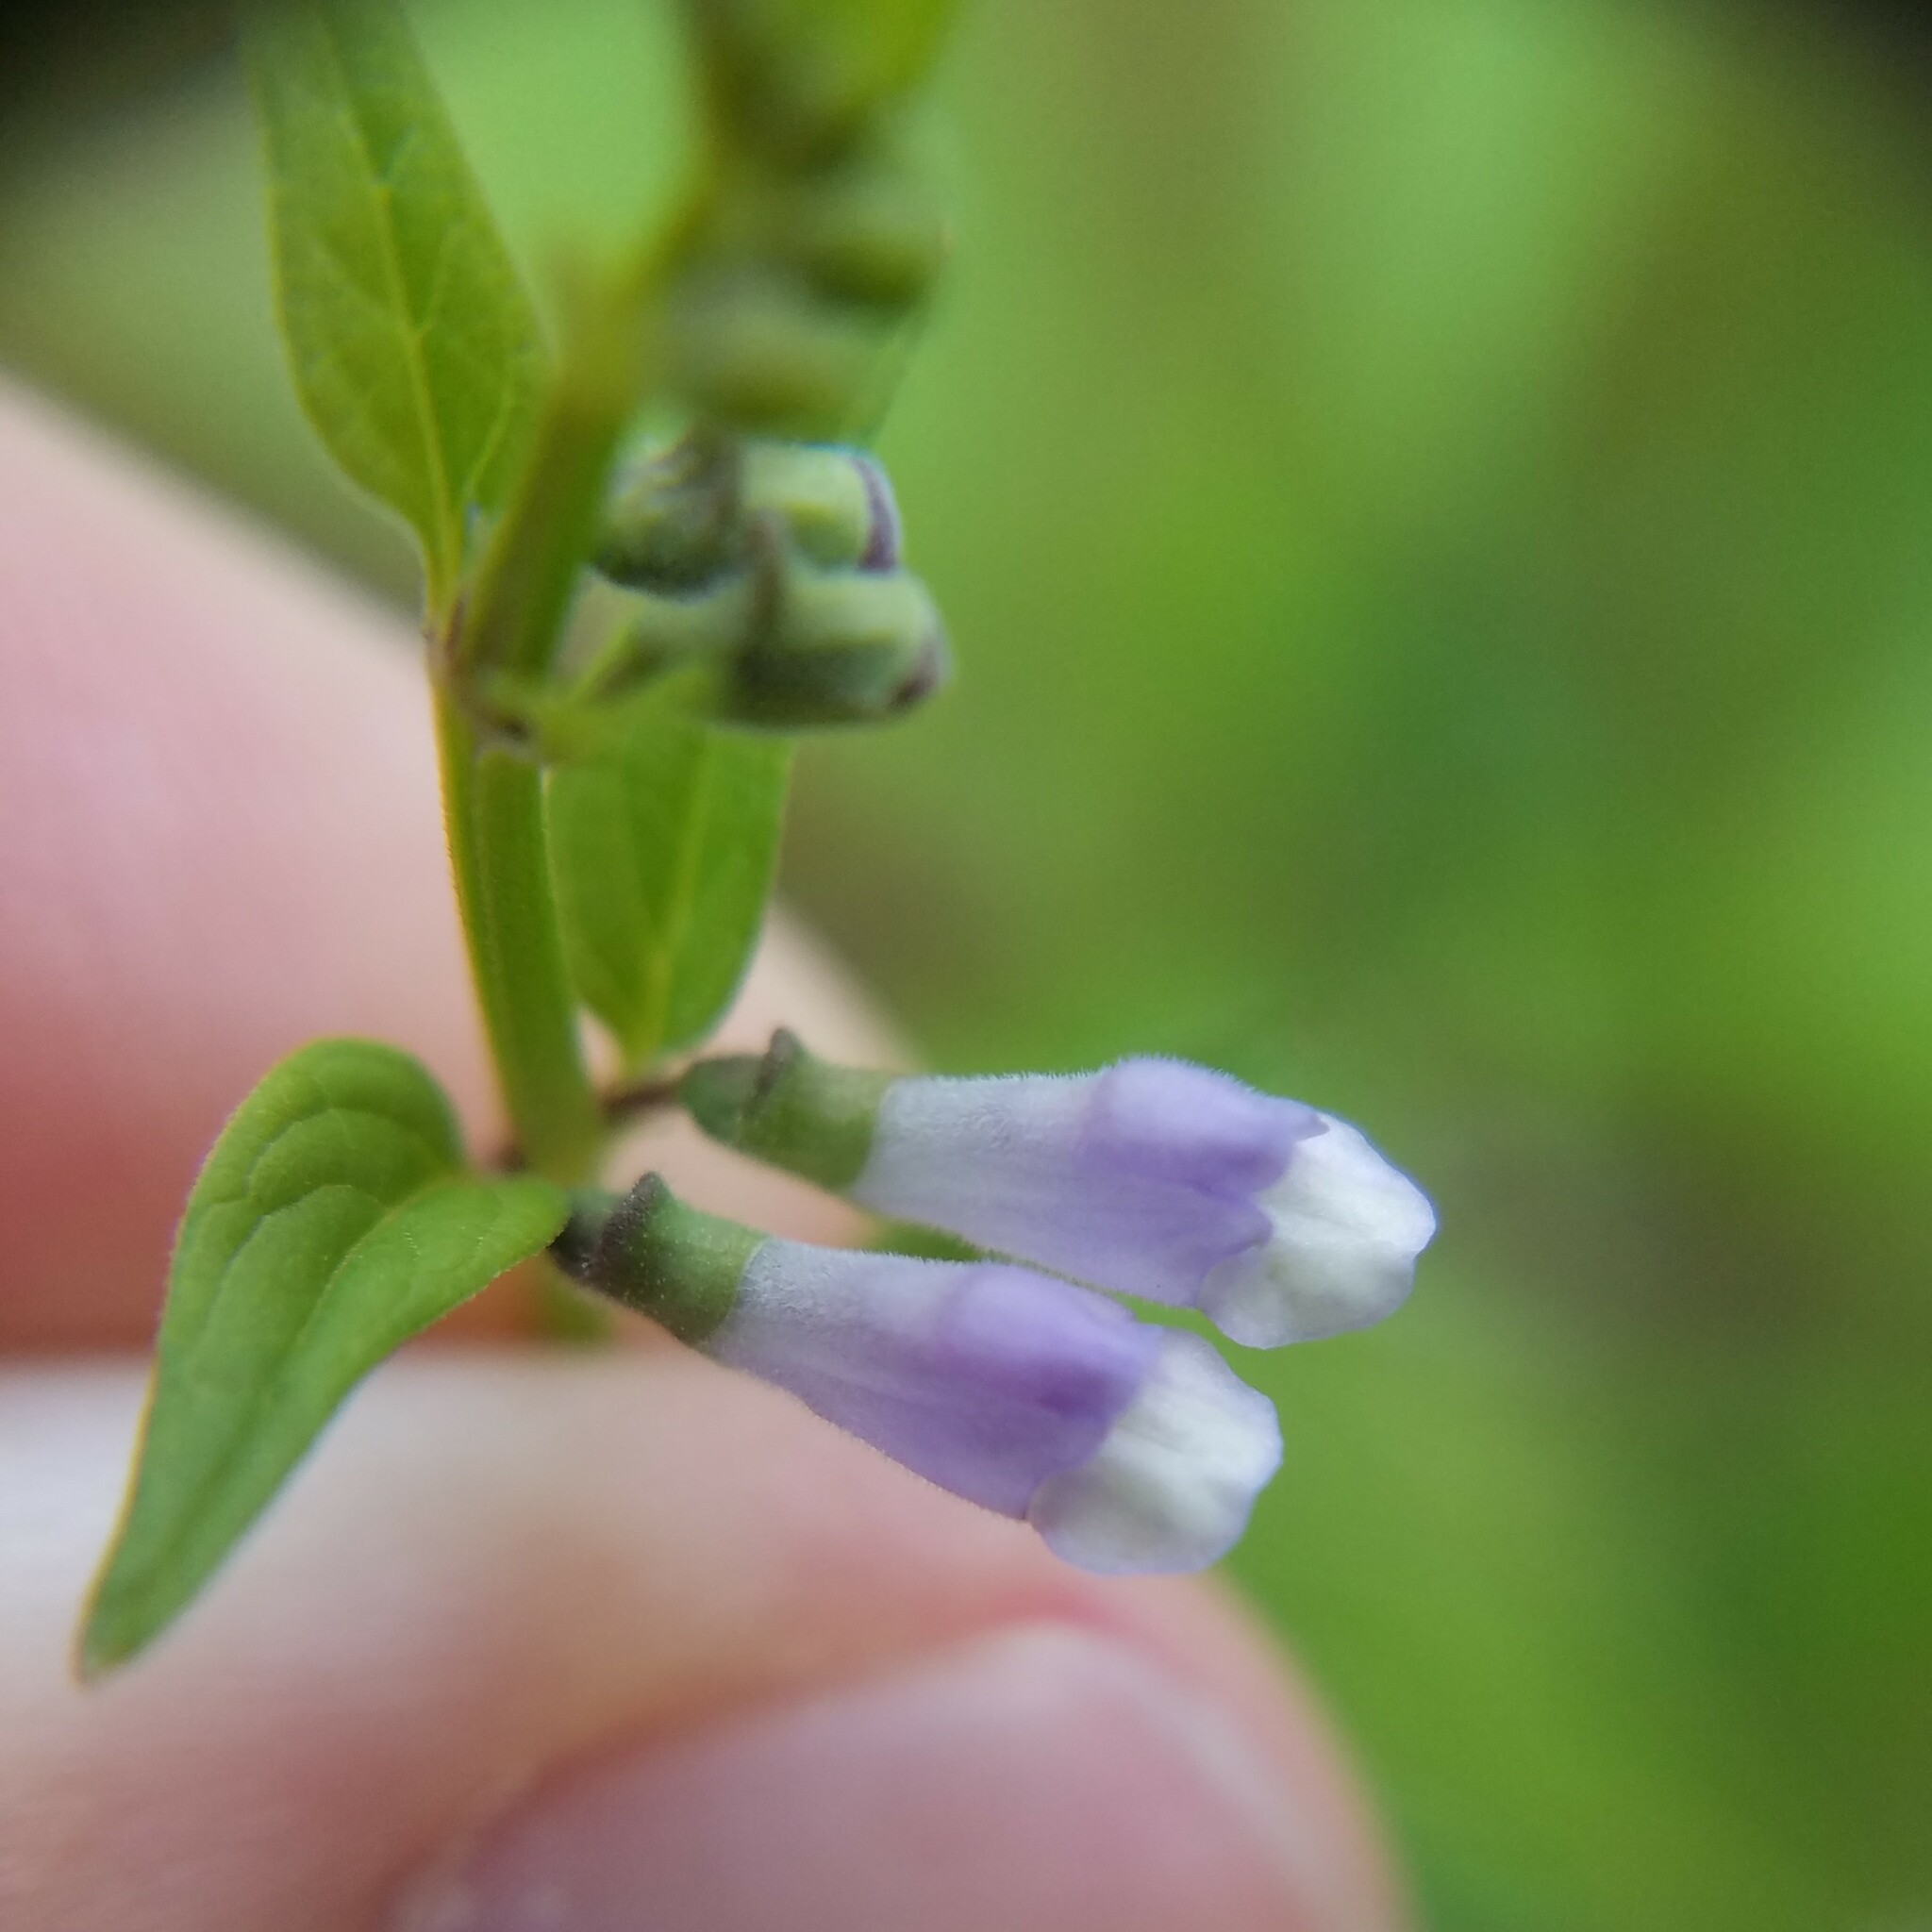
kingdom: Plantae
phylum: Tracheophyta
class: Magnoliopsida
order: Lamiales
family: Lamiaceae
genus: Scutellaria
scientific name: Scutellaria lateriflora
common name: Blue skullcap
